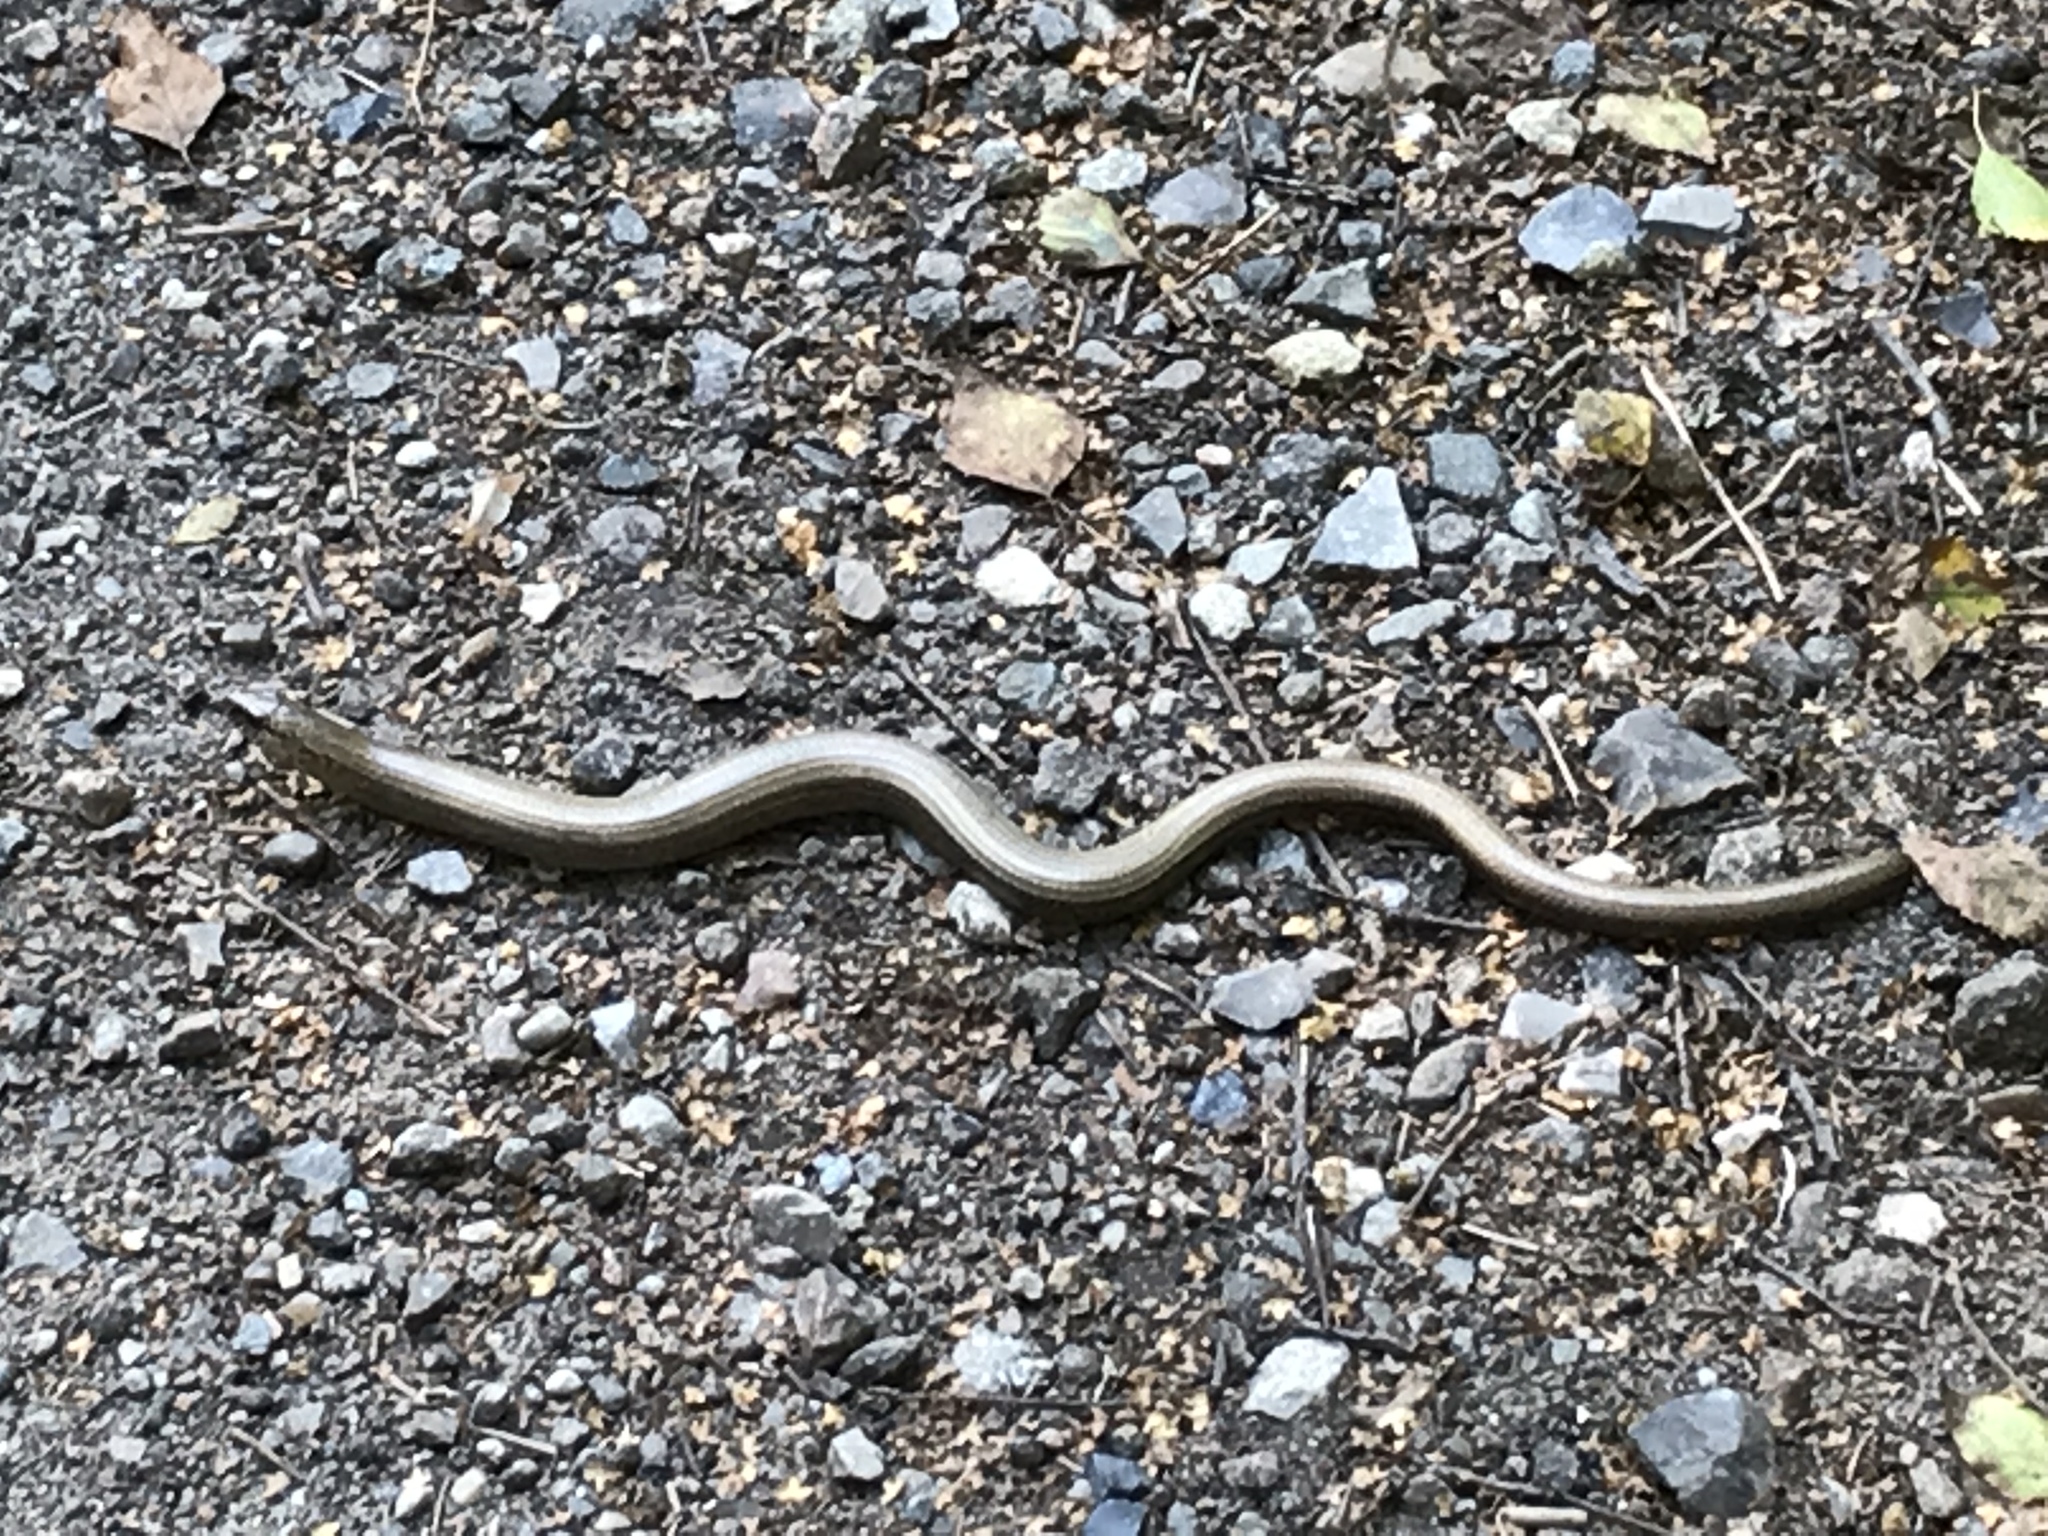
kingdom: Animalia
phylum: Chordata
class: Squamata
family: Anguidae
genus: Anguis
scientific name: Anguis fragilis
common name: Slow worm
